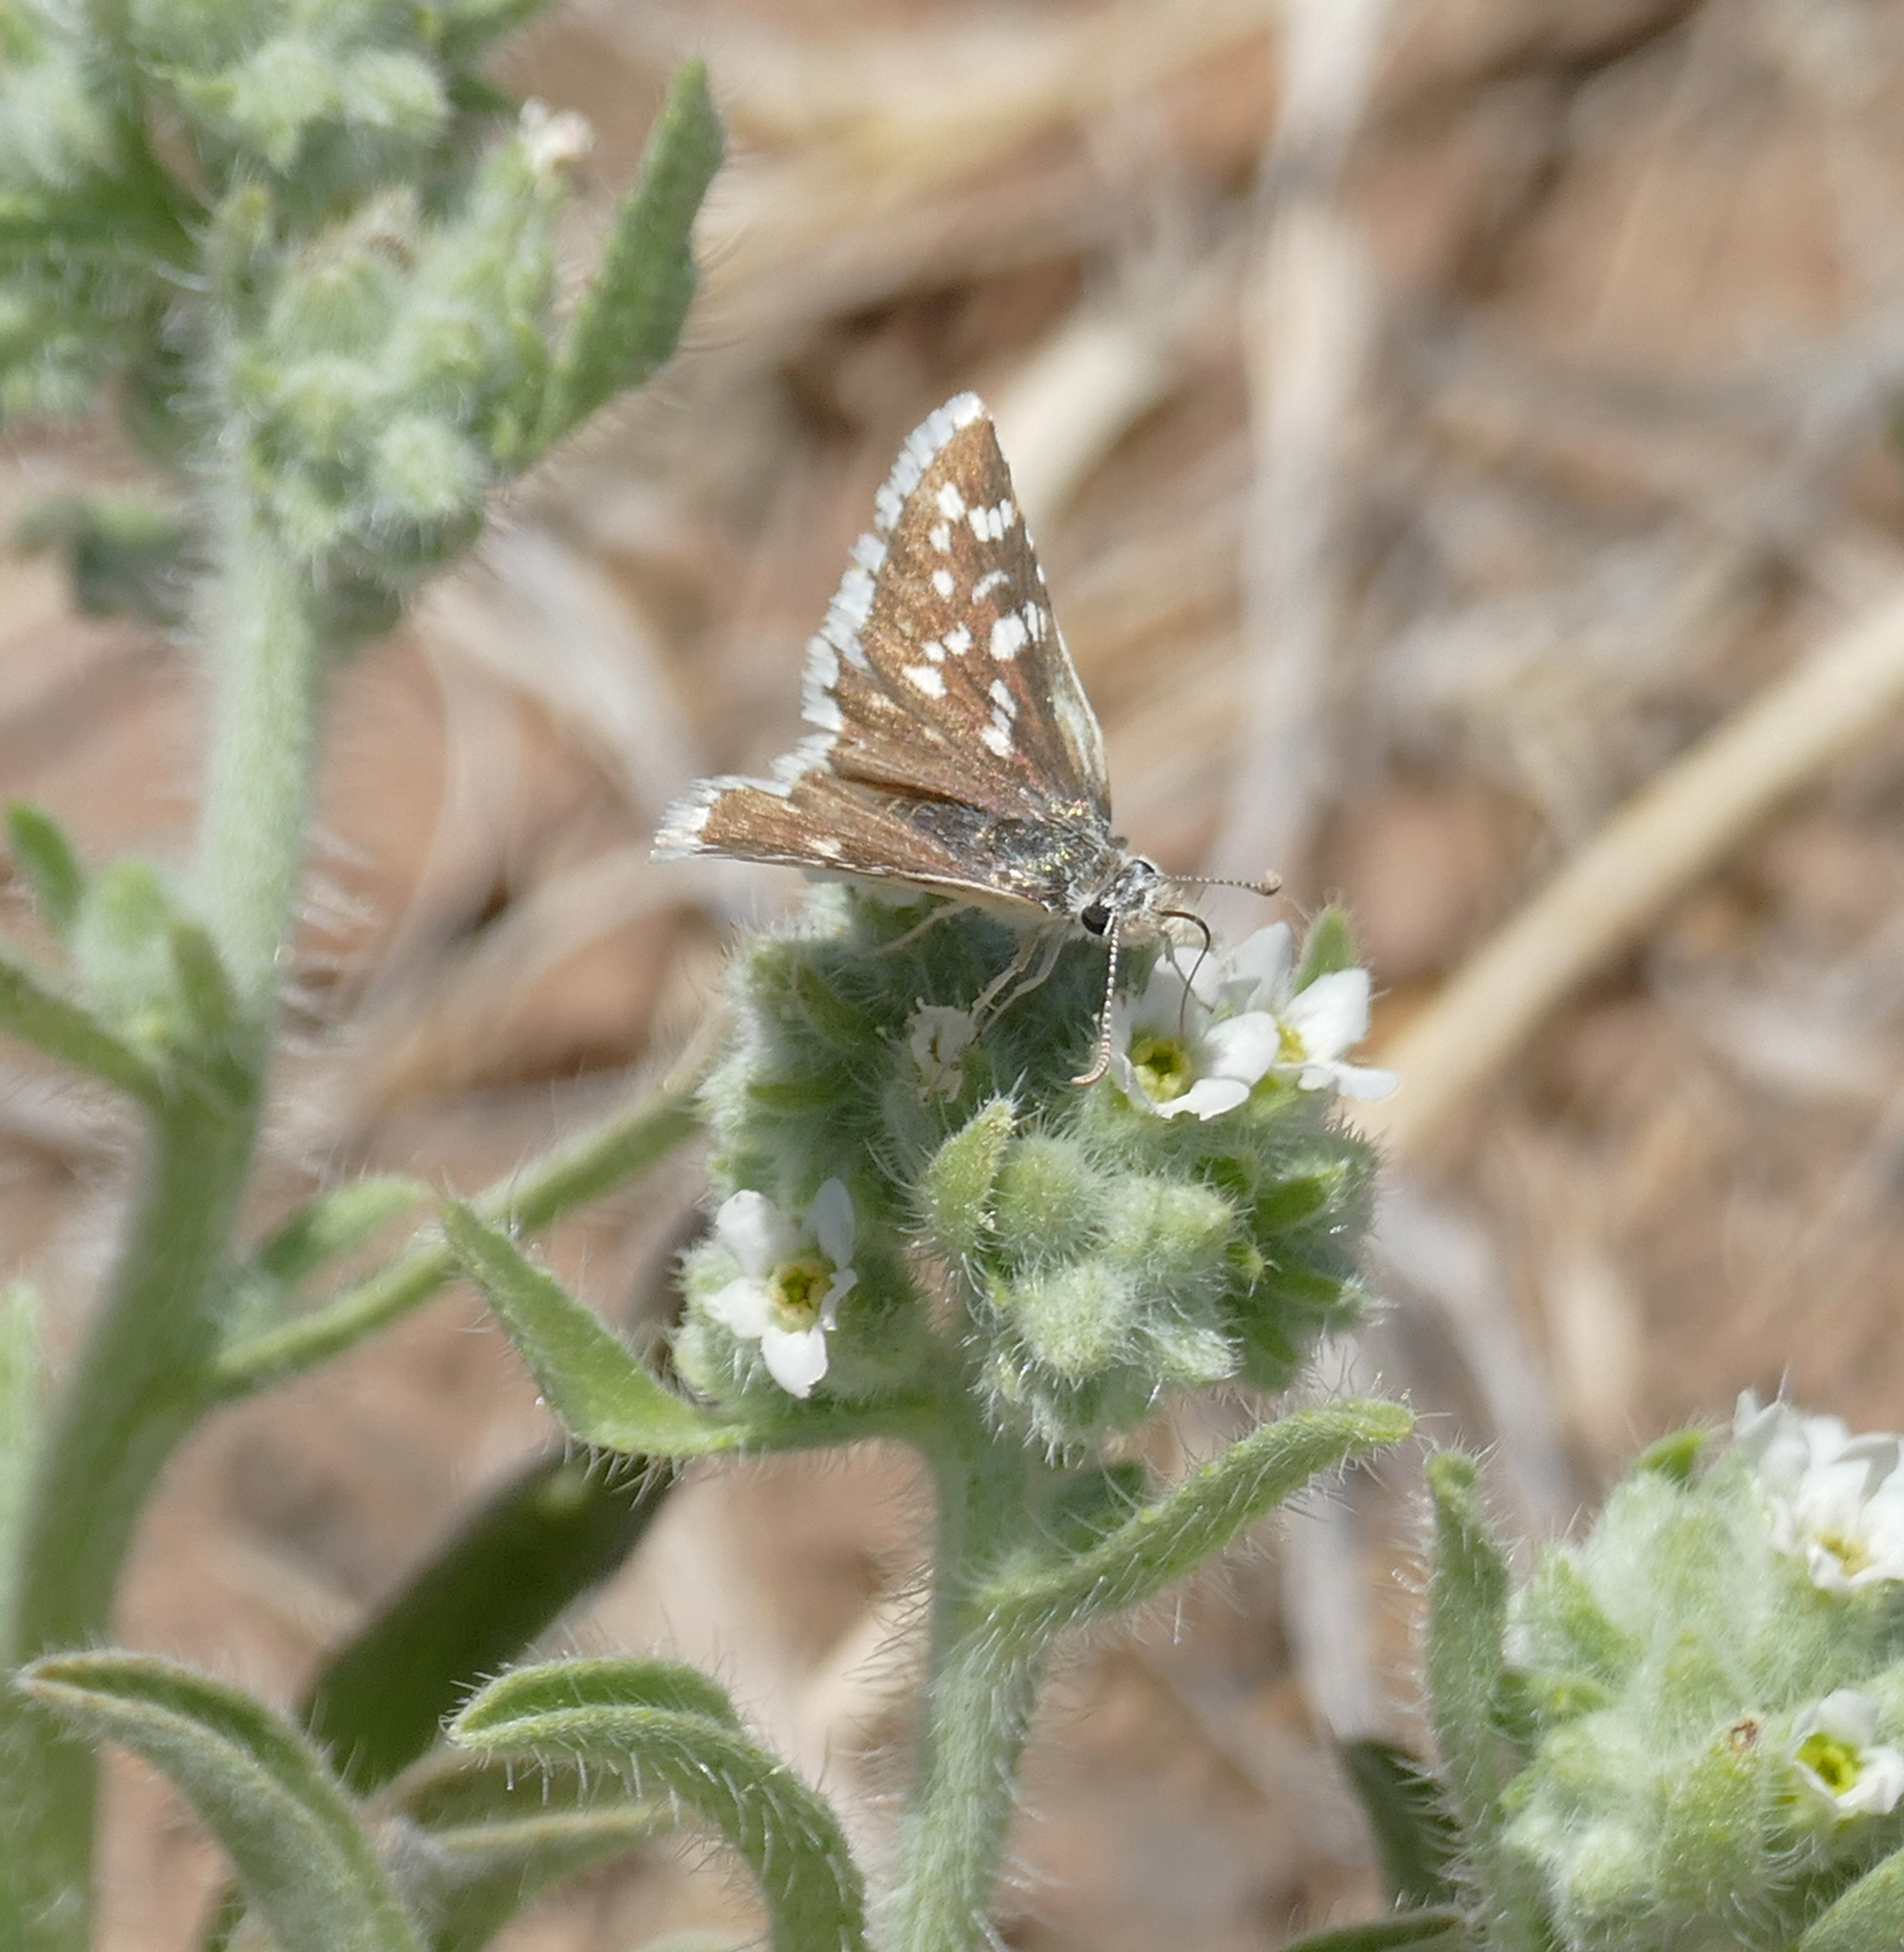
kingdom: Animalia
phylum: Arthropoda
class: Insecta
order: Lepidoptera
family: Hesperiidae
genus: Pyrgus
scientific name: Pyrgus scriptura
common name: Small checkered-skipper
